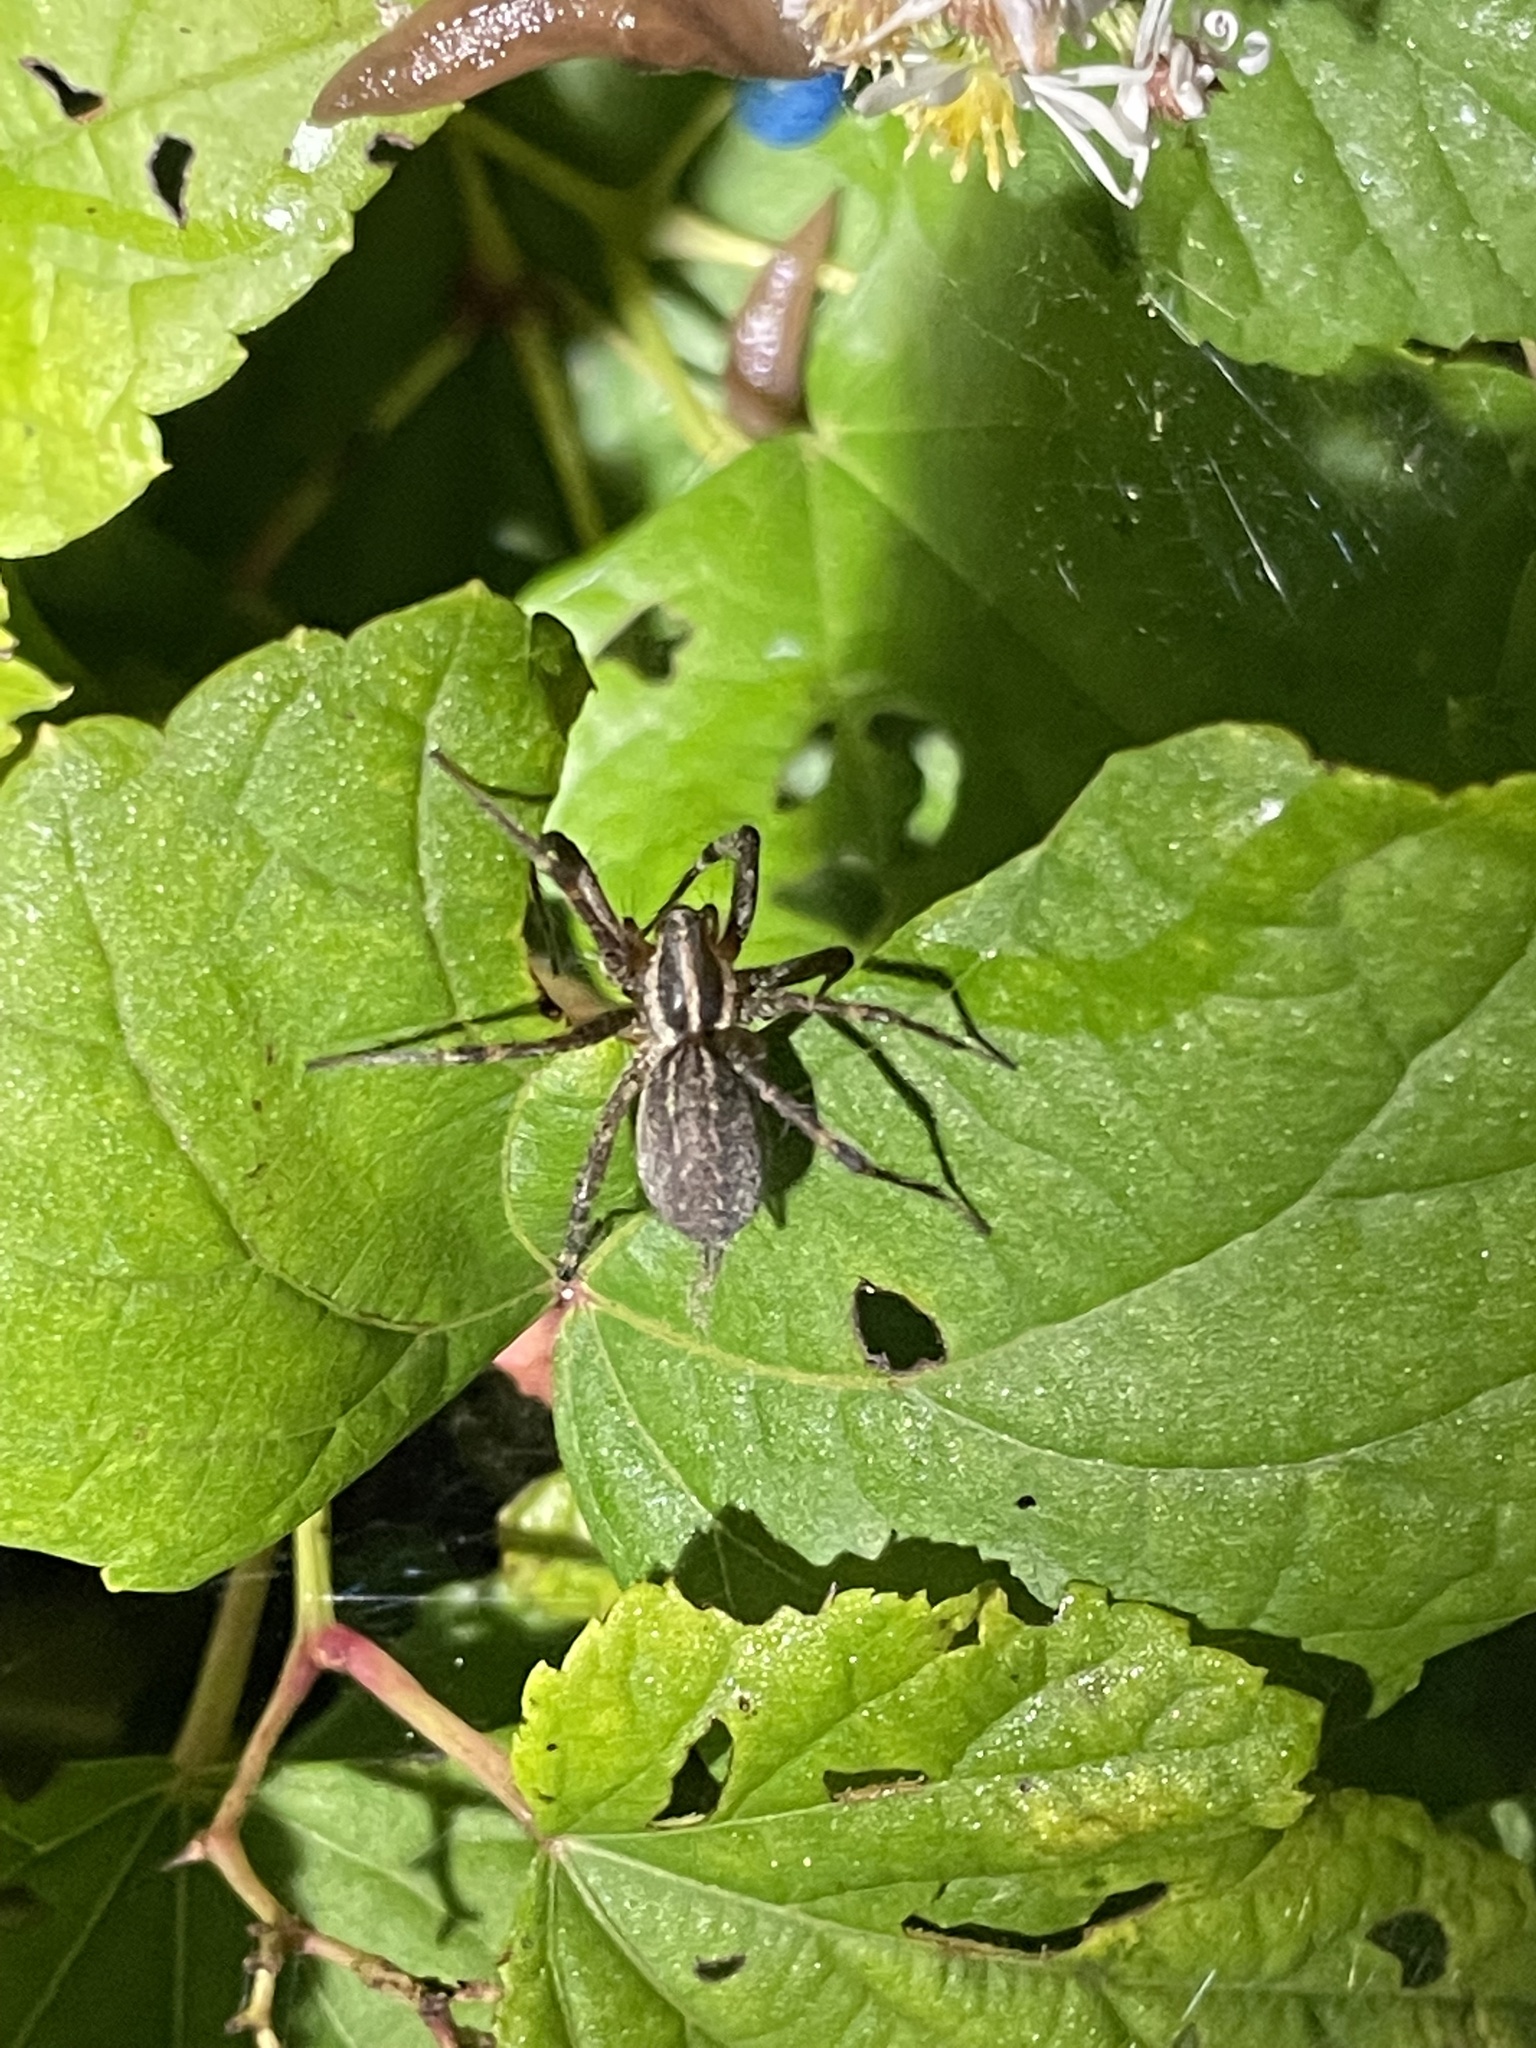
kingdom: Animalia
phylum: Arthropoda
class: Arachnida
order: Araneae
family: Agelenidae
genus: Agelenopsis
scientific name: Agelenopsis
